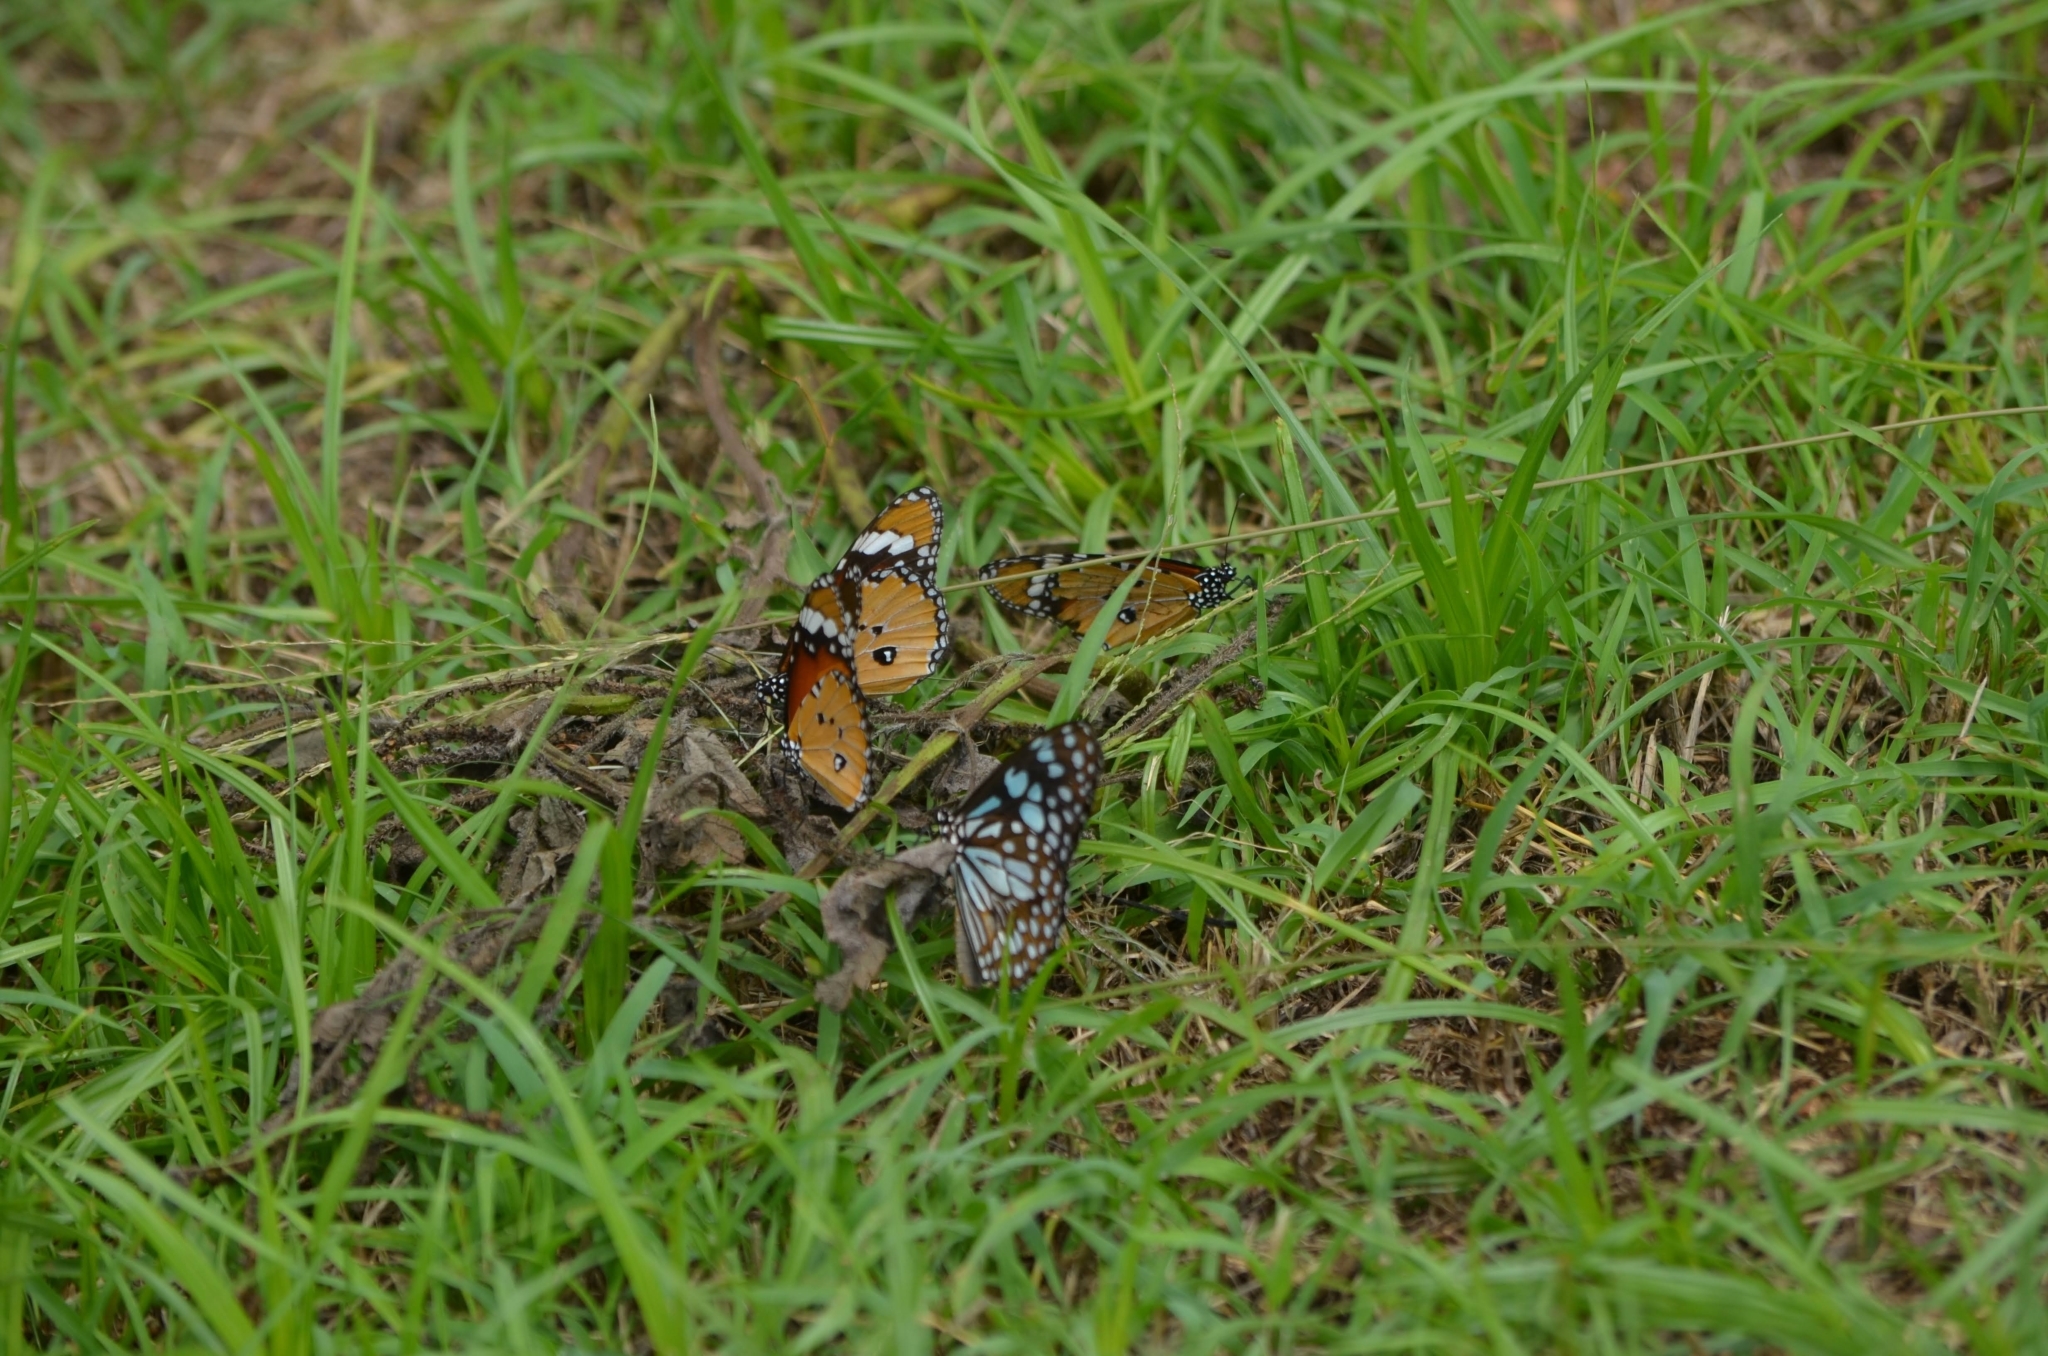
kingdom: Animalia
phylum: Arthropoda
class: Insecta
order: Lepidoptera
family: Nymphalidae
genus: Danaus
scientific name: Danaus chrysippus
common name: Plain tiger
